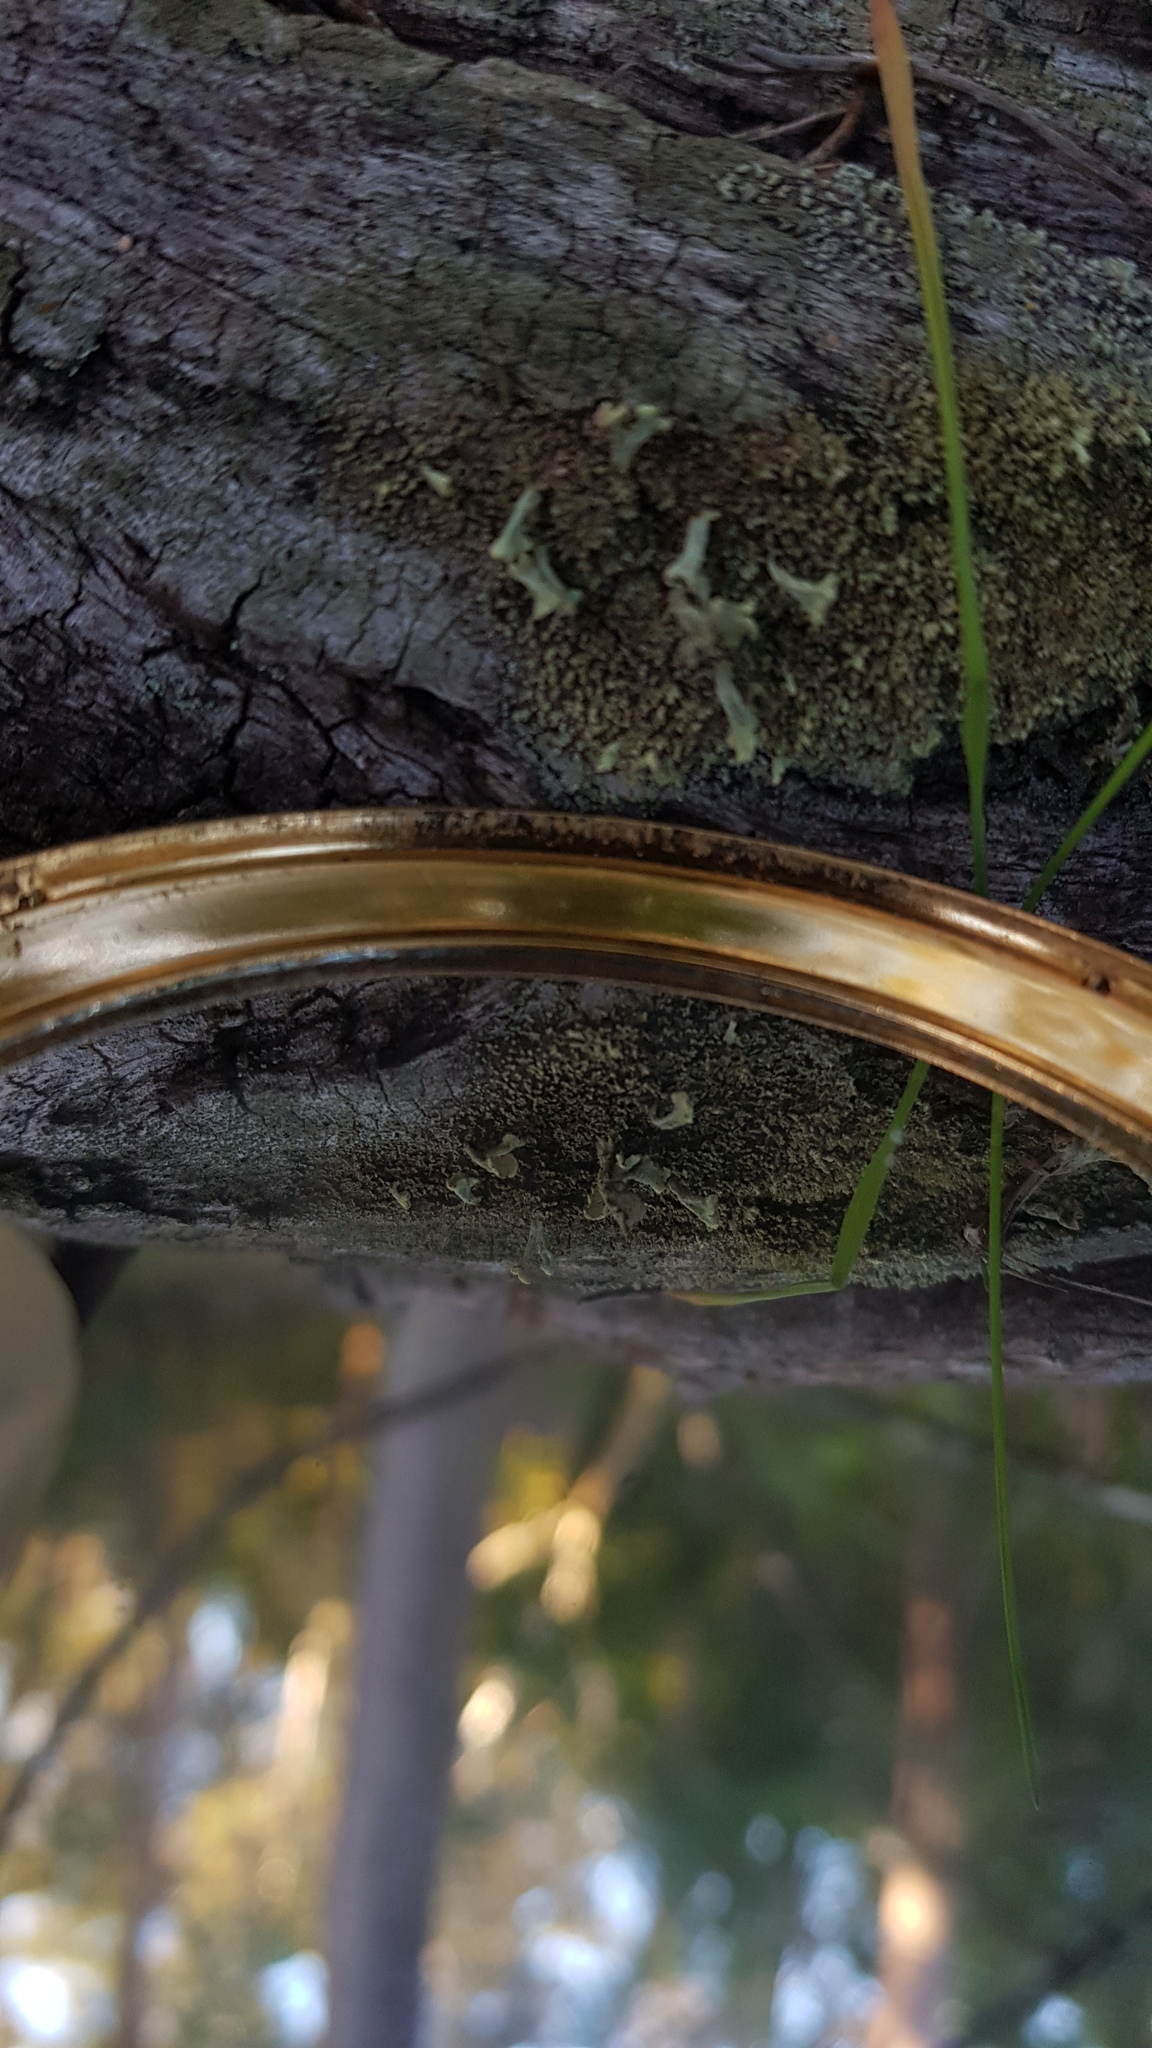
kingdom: Fungi
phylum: Ascomycota
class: Lecanoromycetes
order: Lecanorales
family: Cladoniaceae
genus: Thysanothecium
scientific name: Thysanothecium scutellatum
